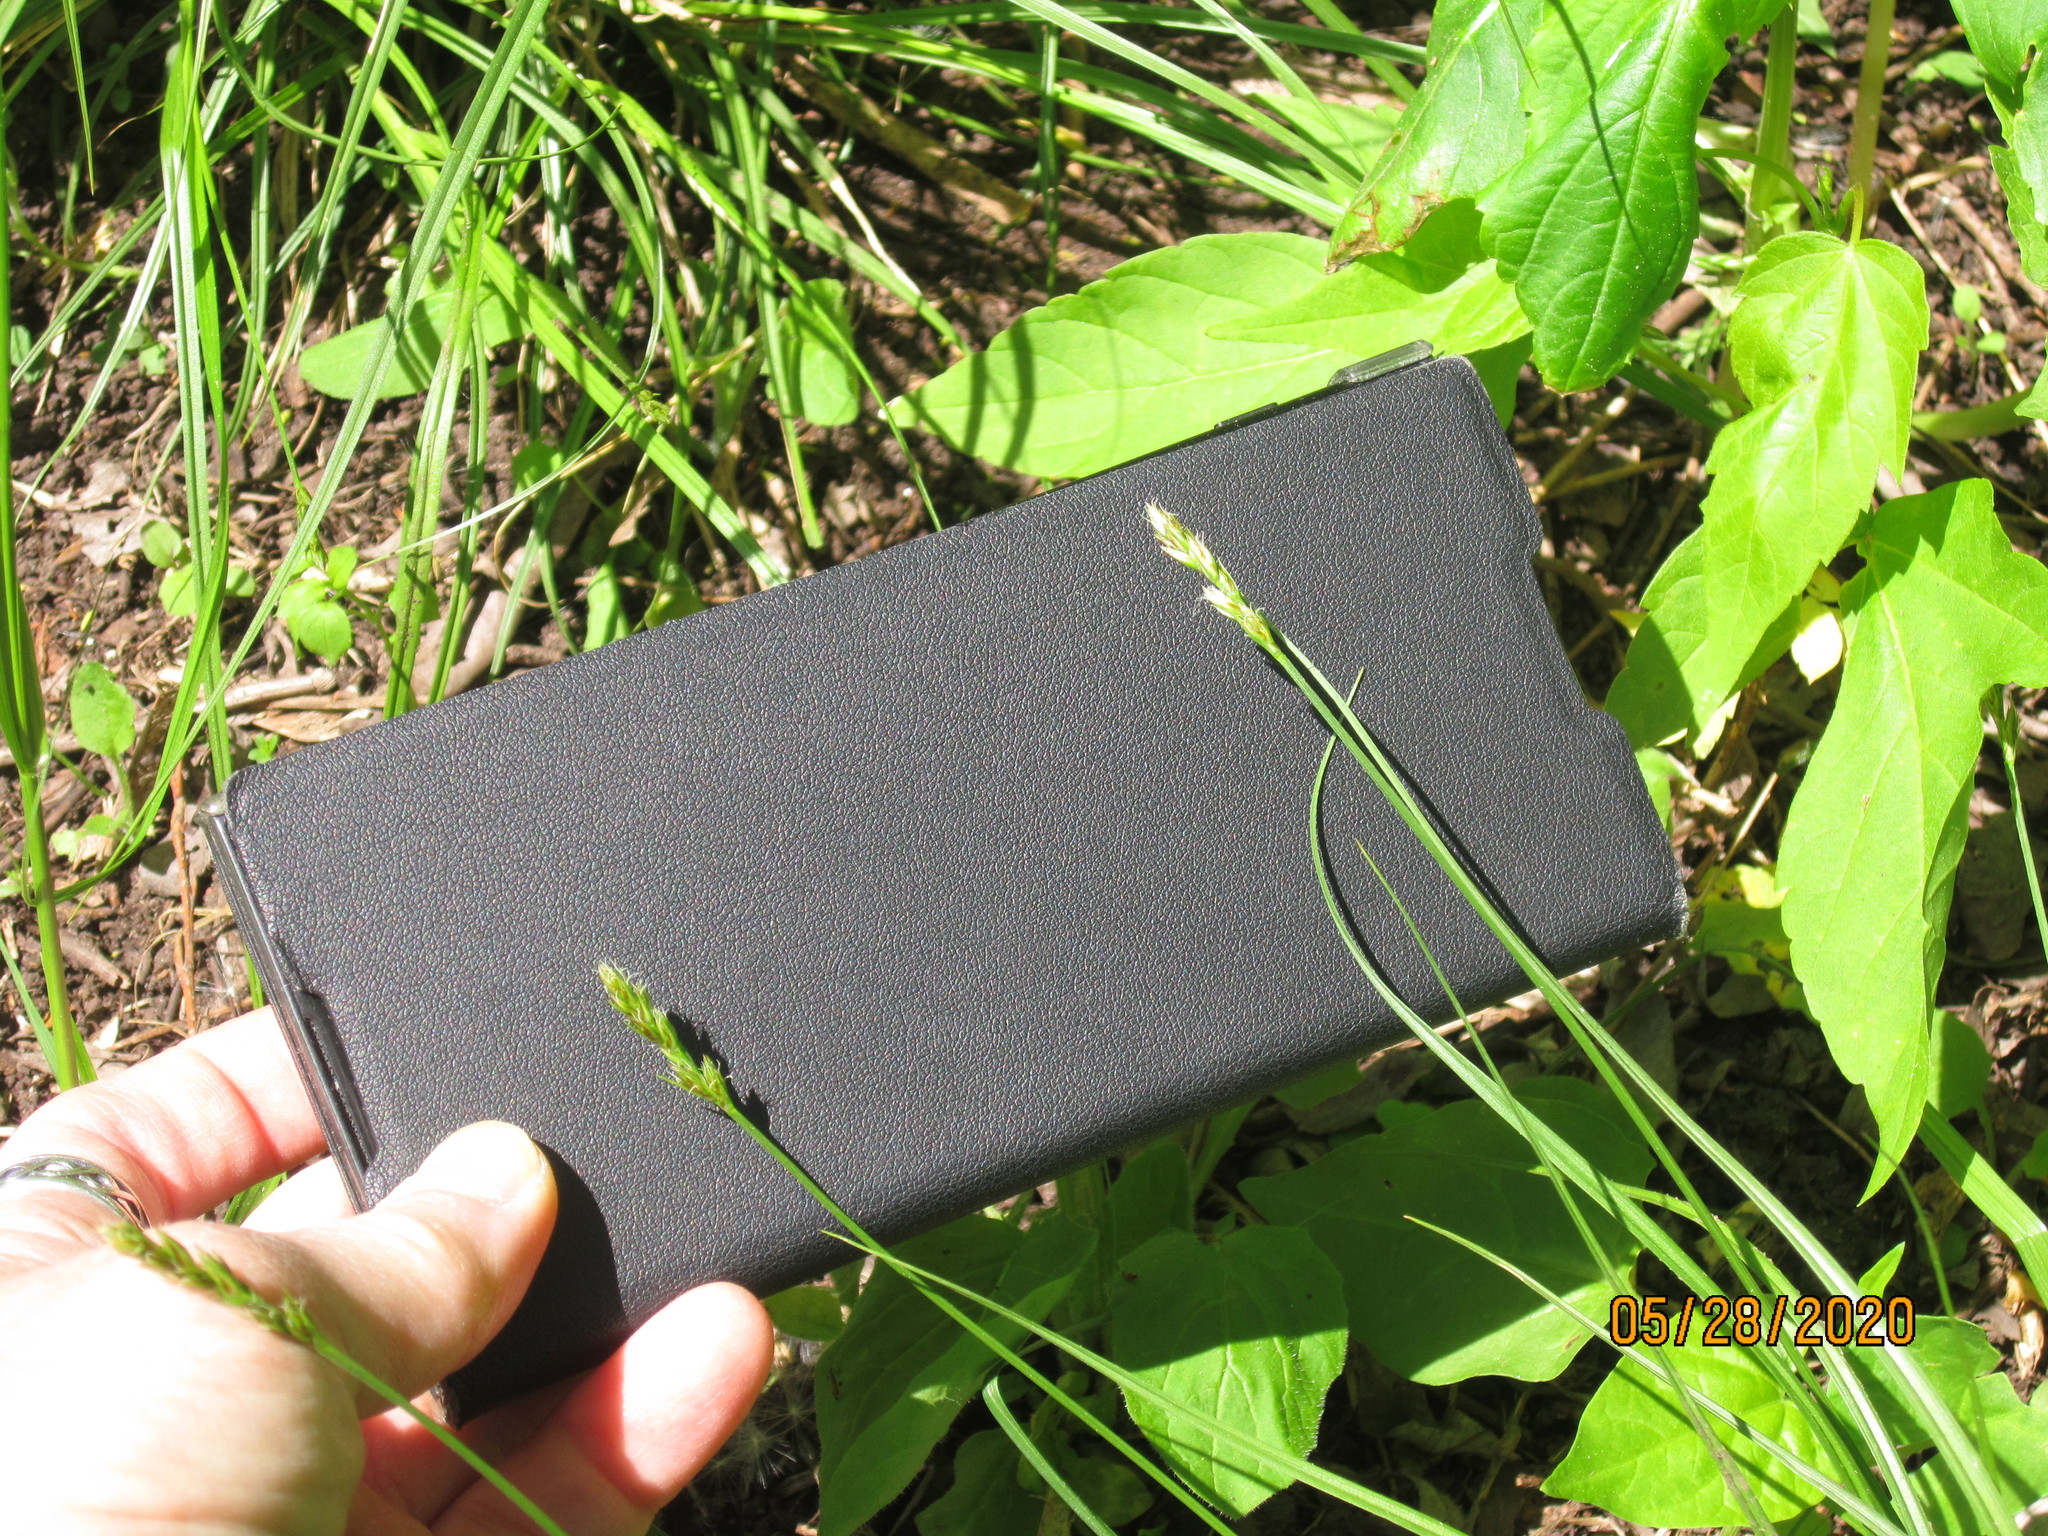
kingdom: Plantae
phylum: Tracheophyta
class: Liliopsida
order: Poales
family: Cyperaceae
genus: Carex
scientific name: Carex spicata
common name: Spiked sedge
